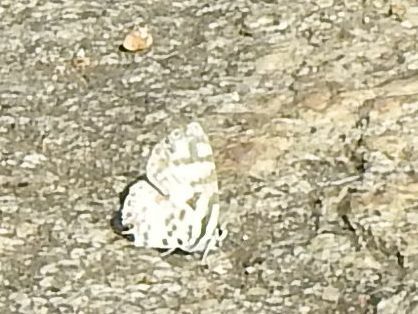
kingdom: Animalia
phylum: Arthropoda
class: Insecta
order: Lepidoptera
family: Lycaenidae
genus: Castalius
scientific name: Castalius melaena
